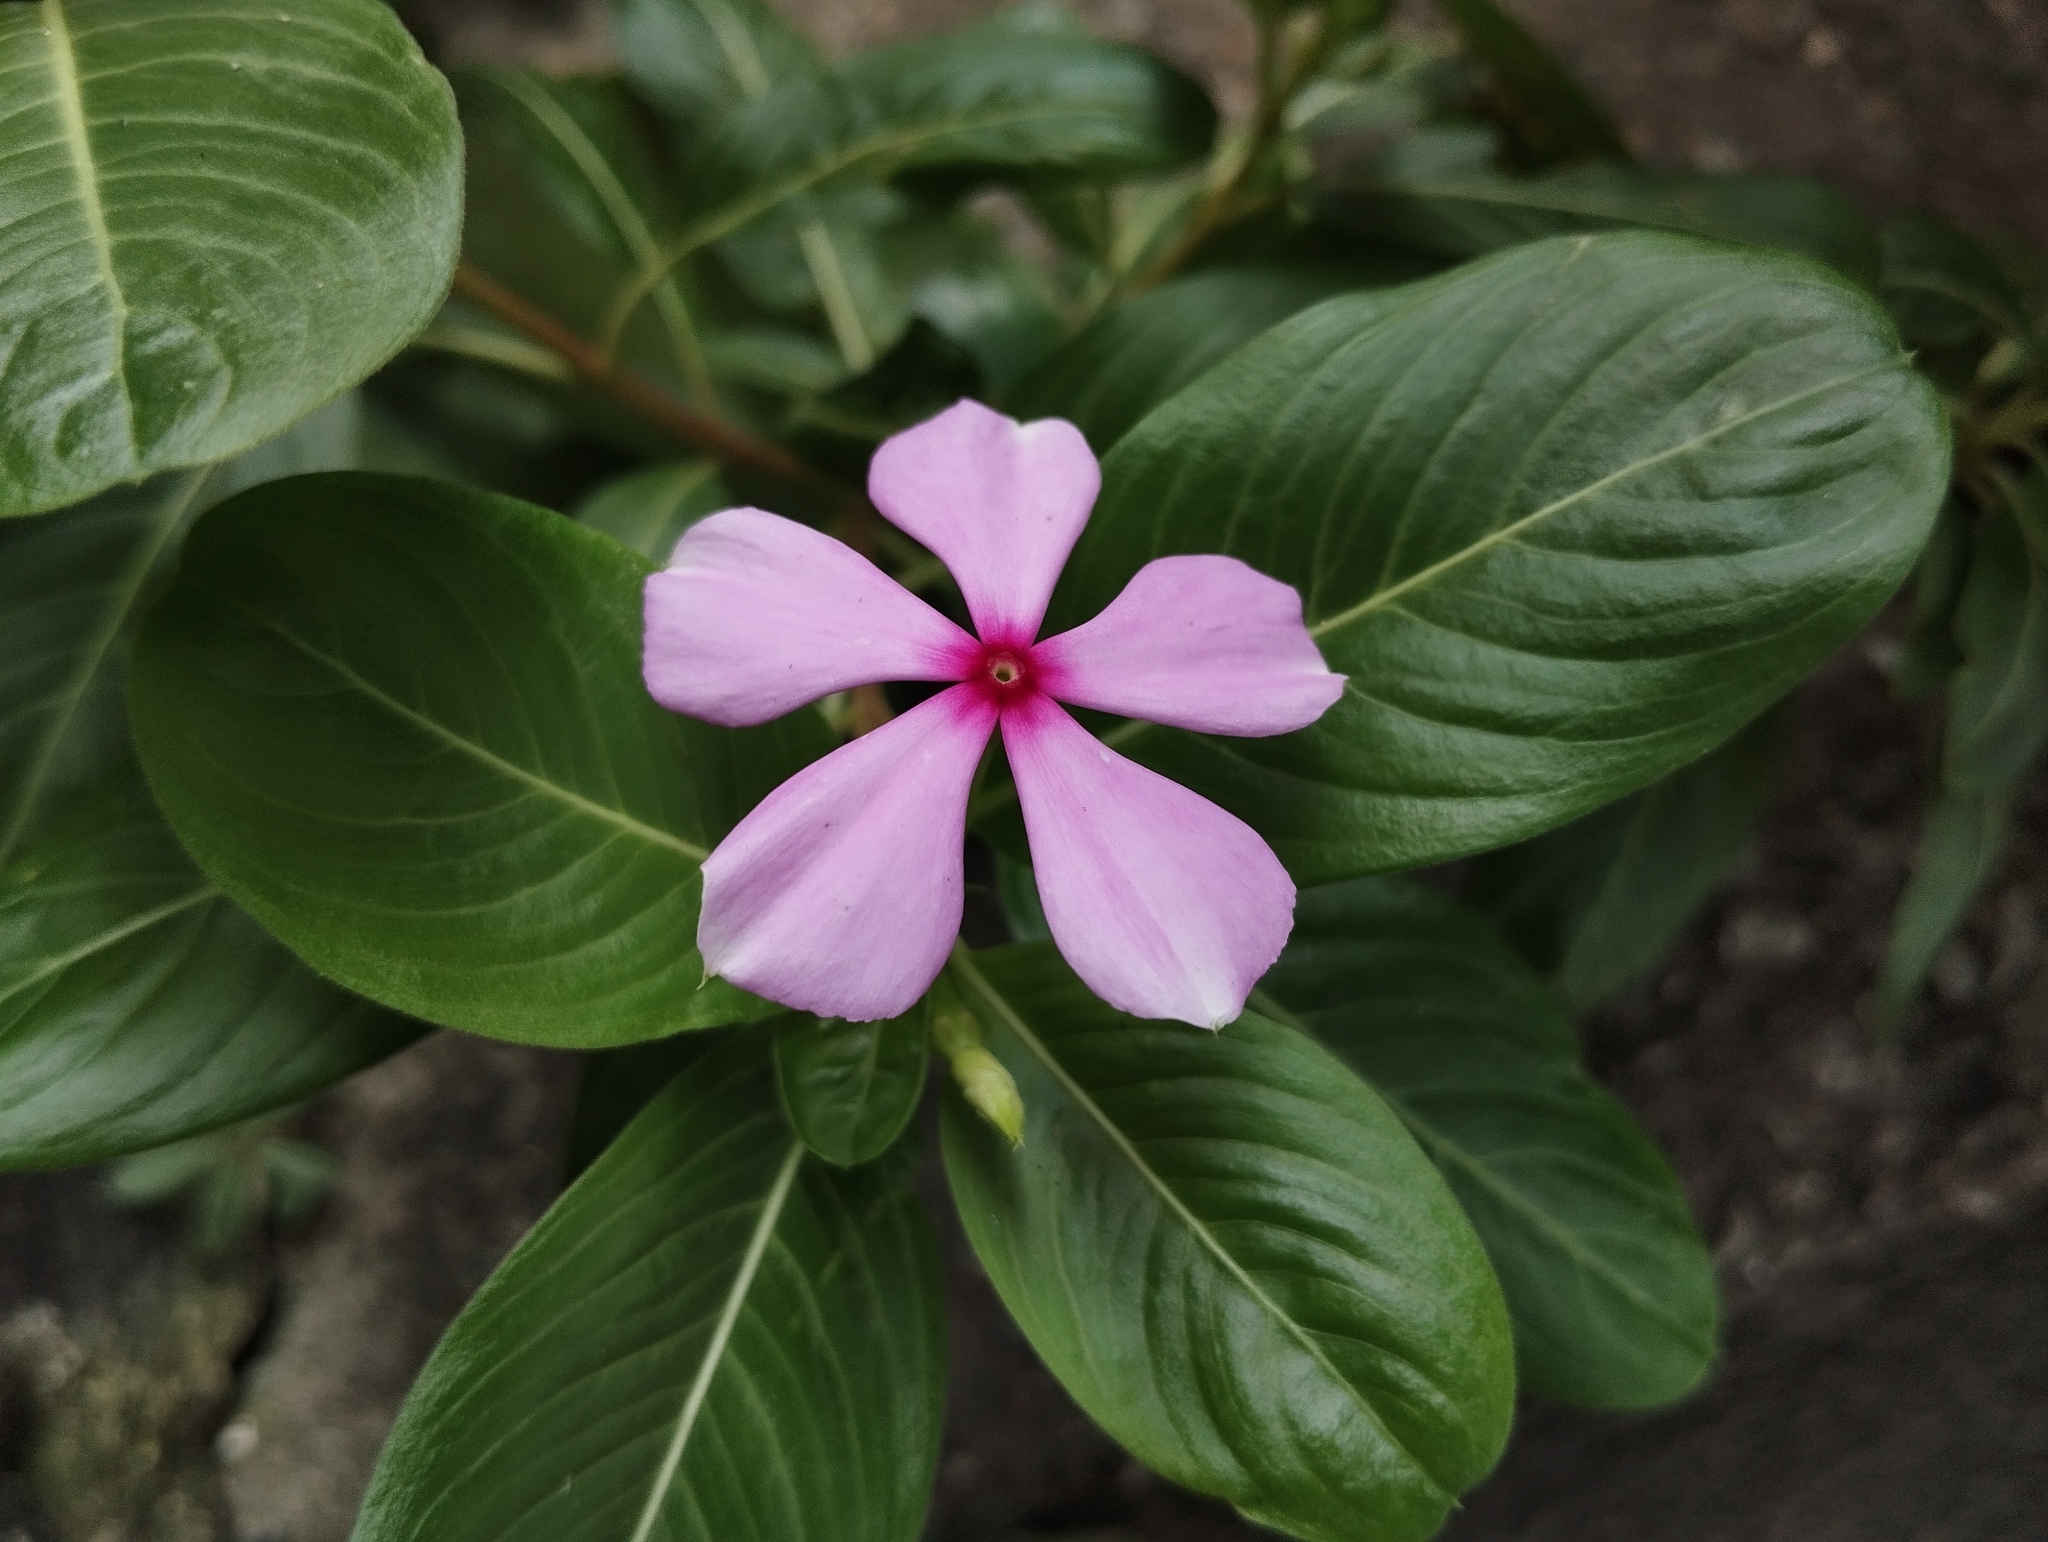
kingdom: Plantae
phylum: Tracheophyta
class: Magnoliopsida
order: Gentianales
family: Apocynaceae
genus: Catharanthus
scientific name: Catharanthus roseus
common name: Madagascar periwinkle
